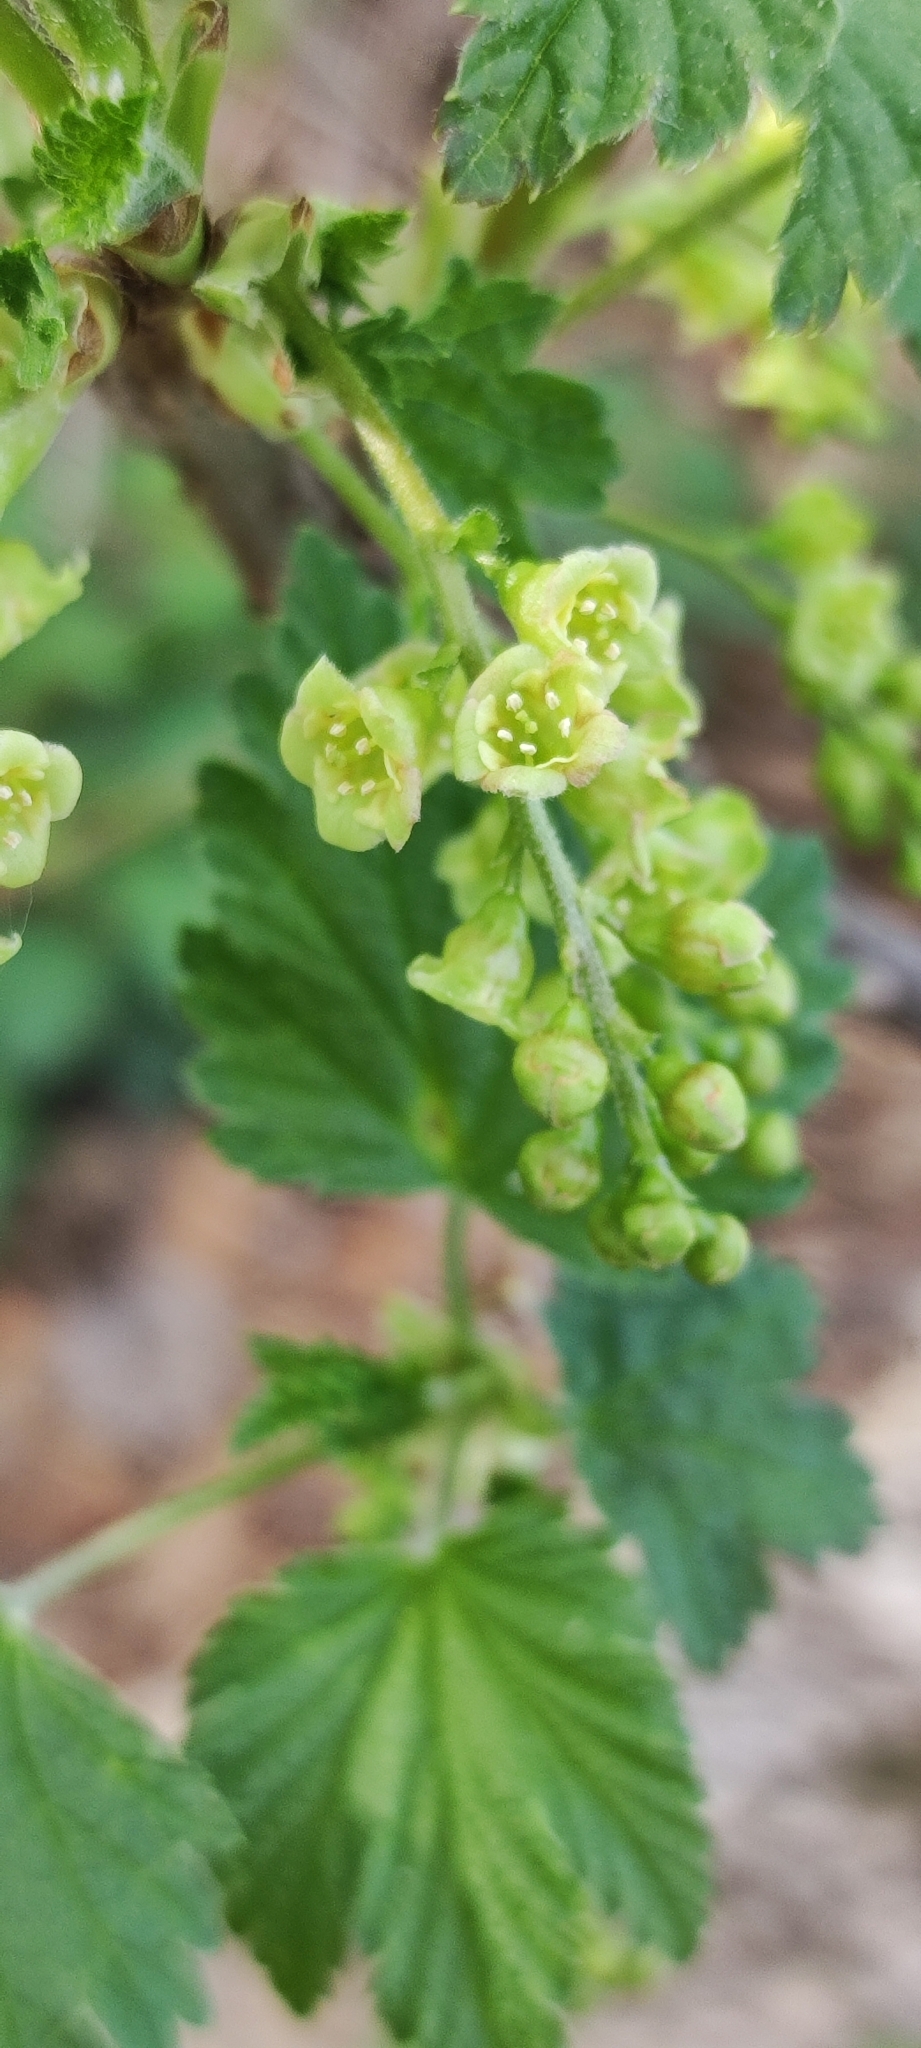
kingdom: Plantae
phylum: Tracheophyta
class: Magnoliopsida
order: Saxifragales
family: Grossulariaceae
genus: Ribes
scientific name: Ribes nigrum
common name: Black currant
